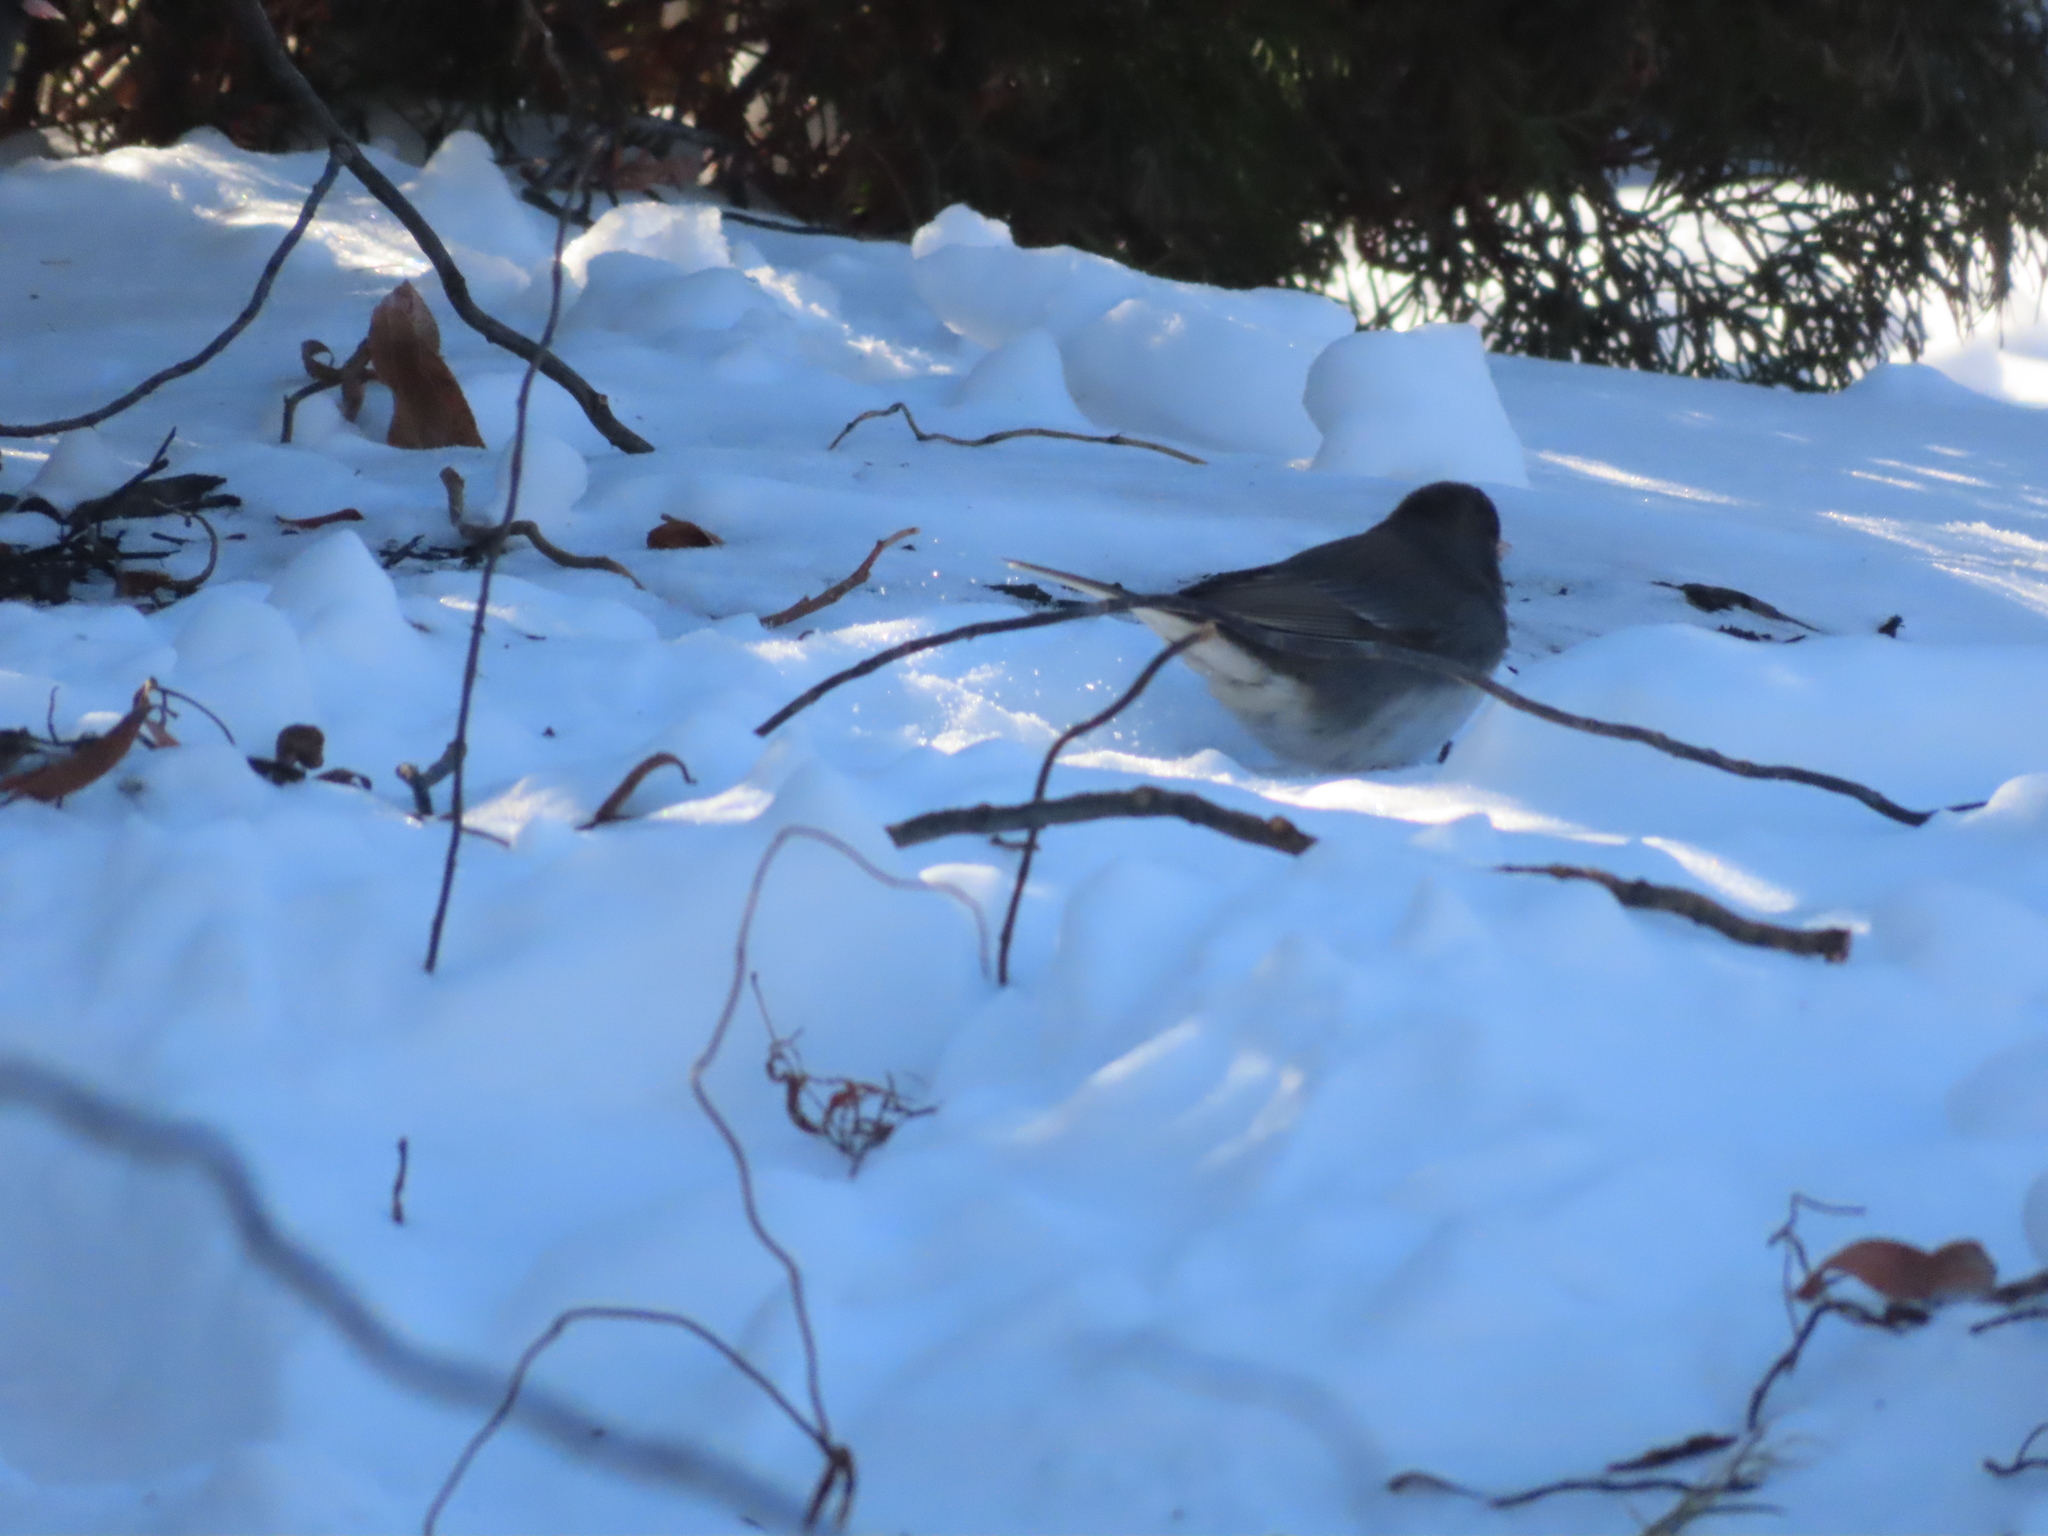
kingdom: Animalia
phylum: Chordata
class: Aves
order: Passeriformes
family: Passerellidae
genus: Junco
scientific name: Junco hyemalis
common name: Dark-eyed junco
